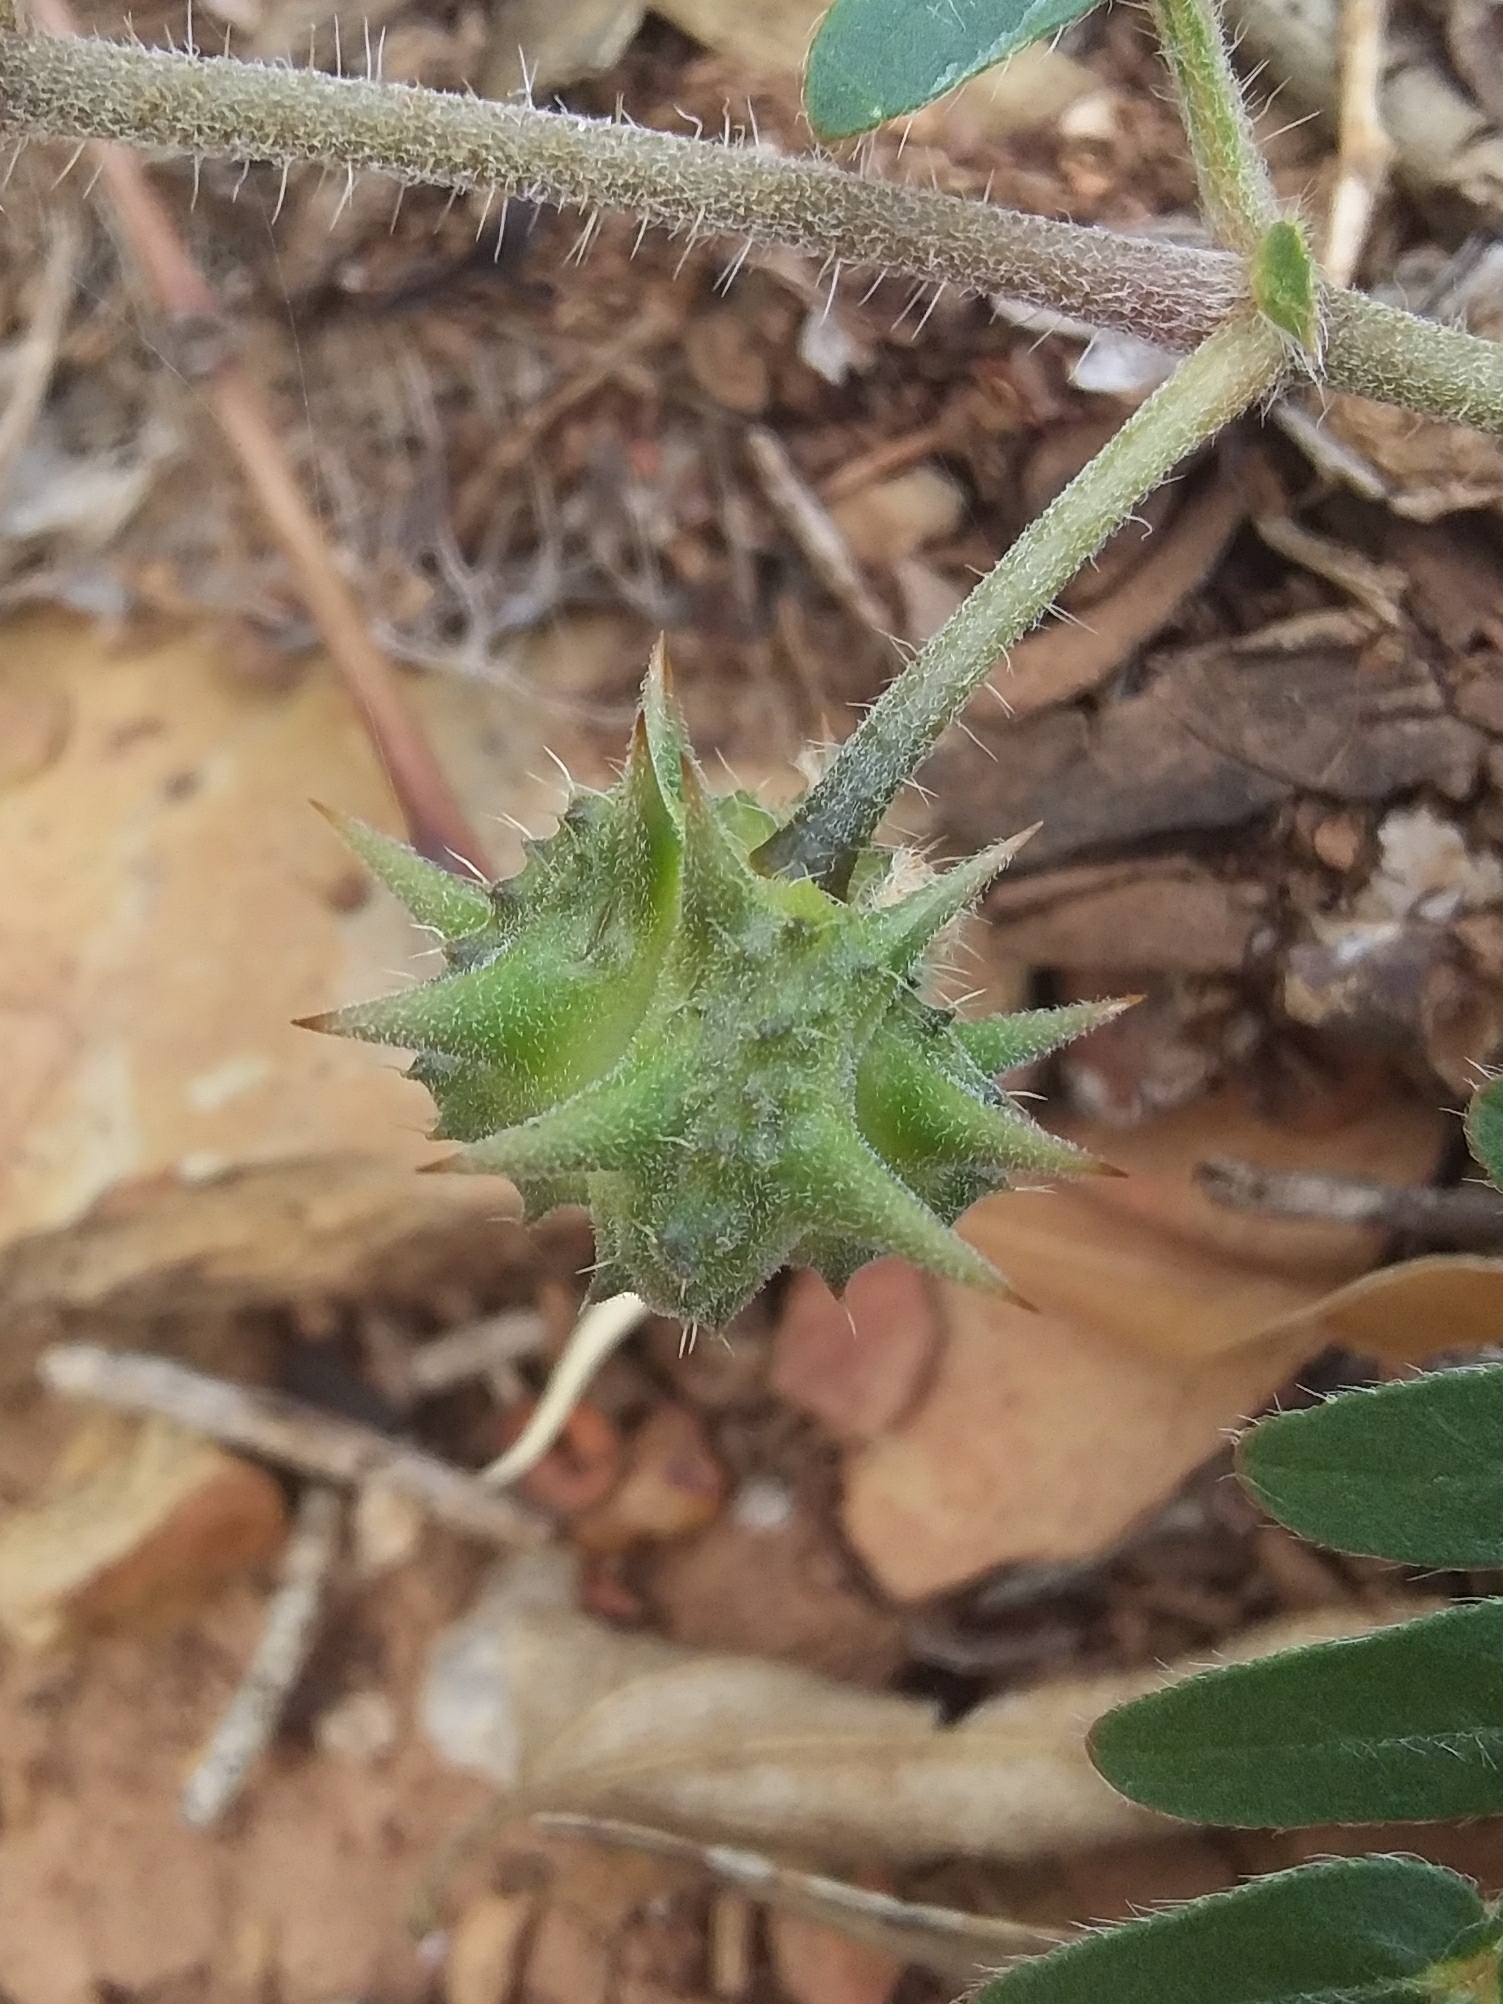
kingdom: Plantae
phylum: Tracheophyta
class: Magnoliopsida
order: Zygophyllales
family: Zygophyllaceae
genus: Tribulus
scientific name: Tribulus terrestris
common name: Puncturevine
